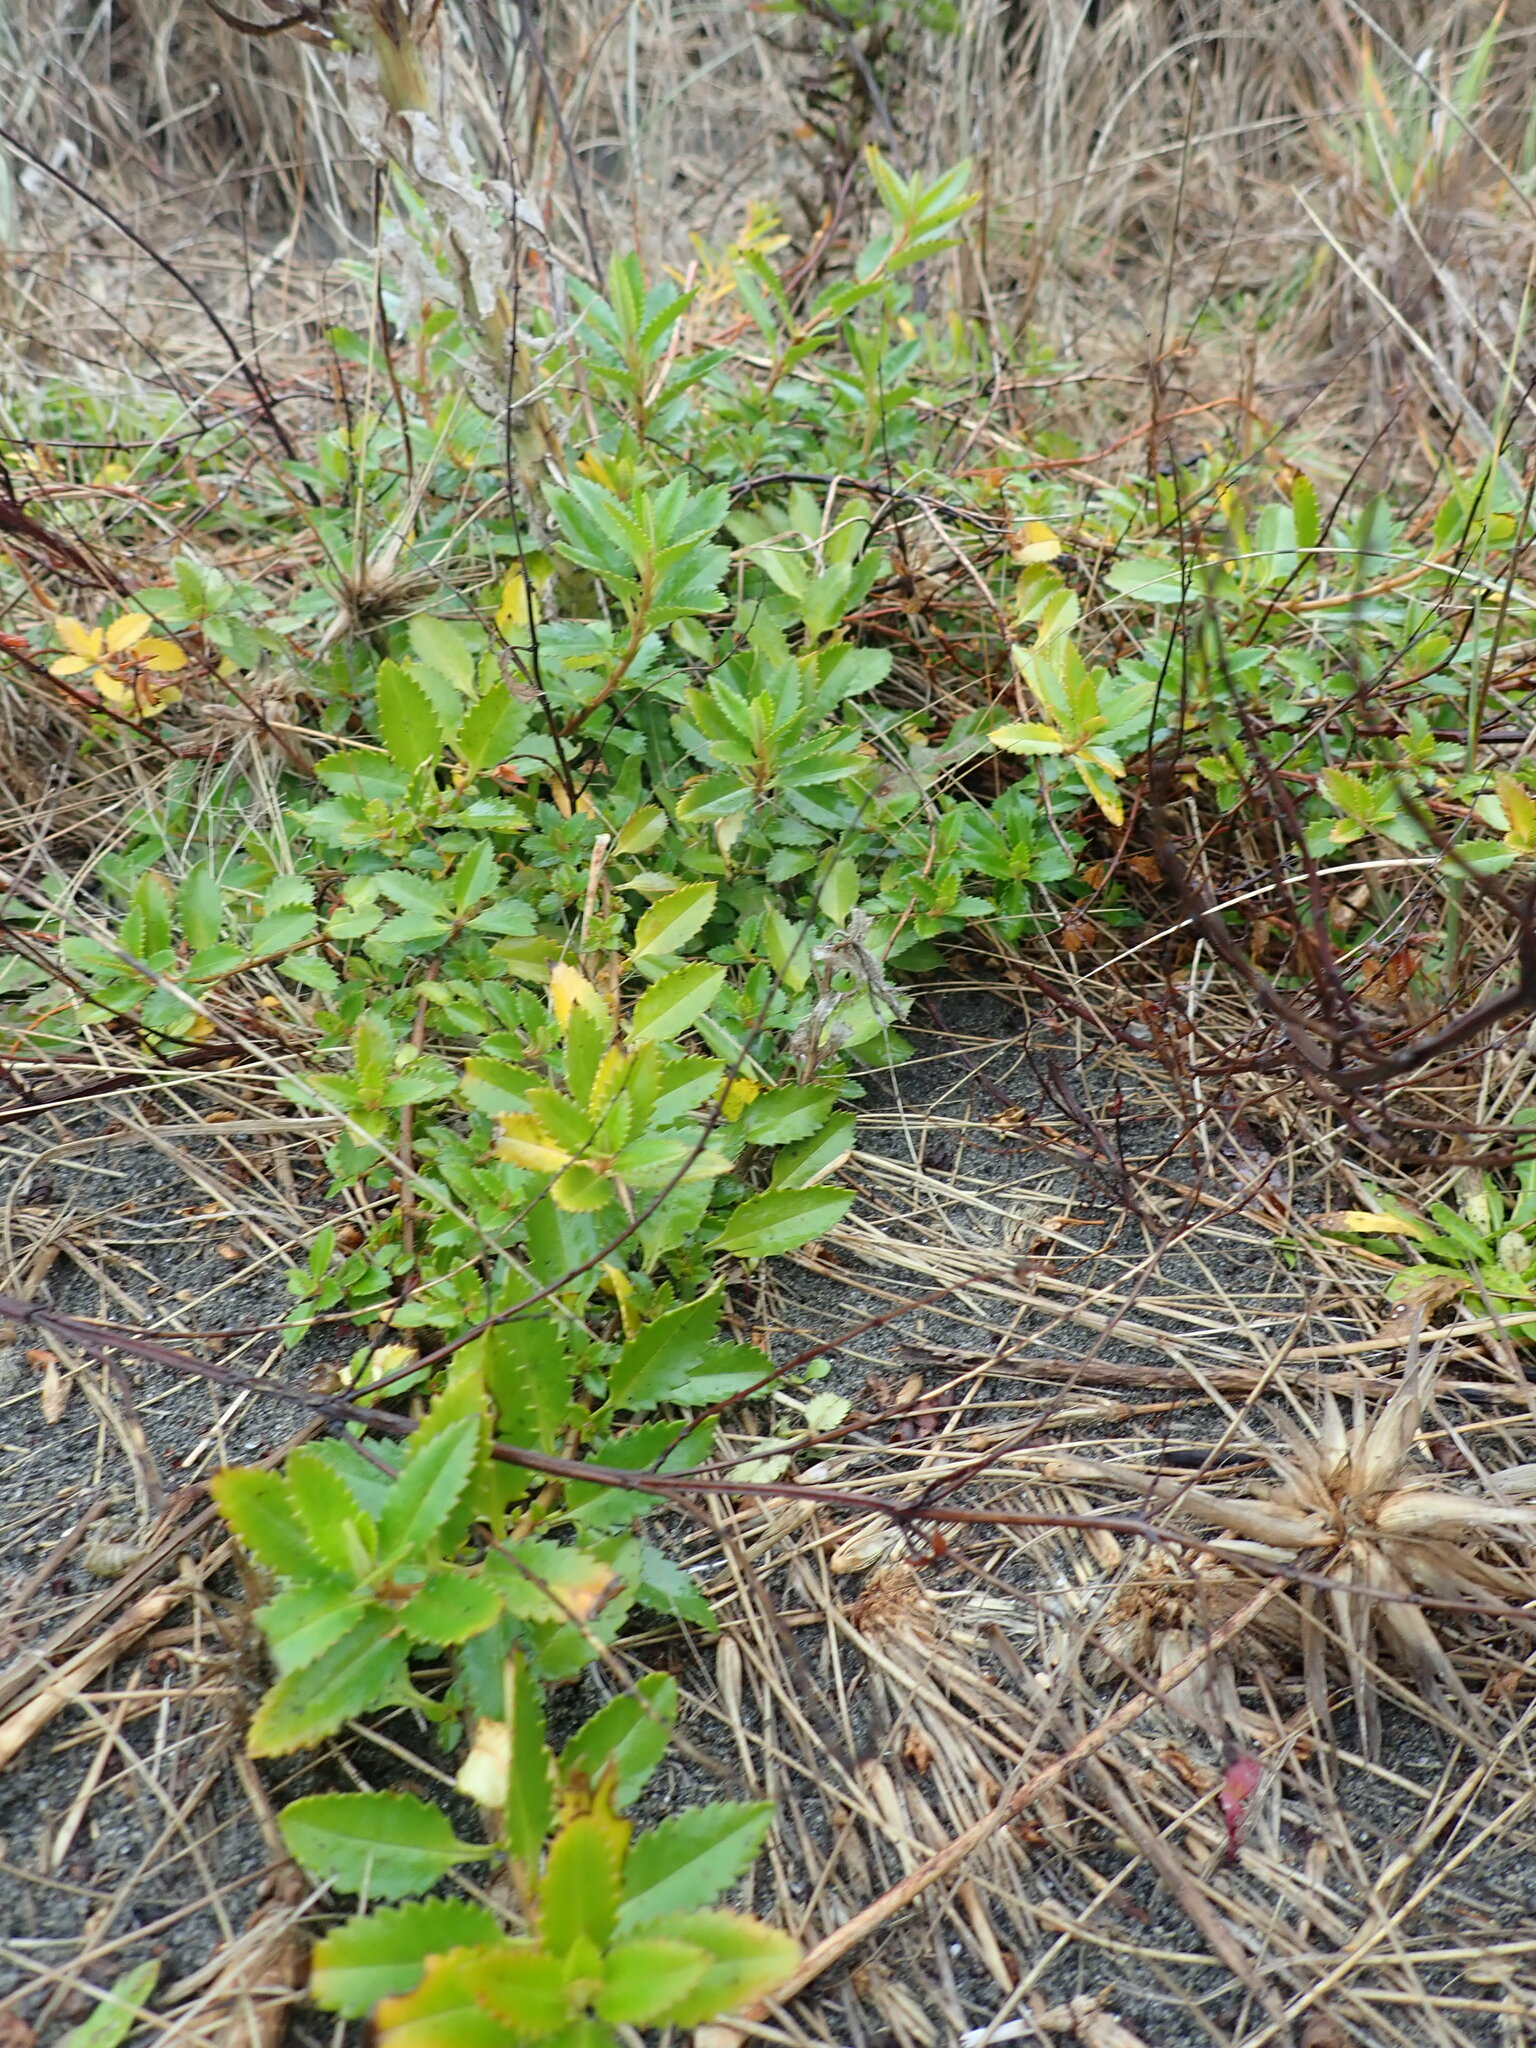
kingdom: Plantae
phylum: Tracheophyta
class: Magnoliopsida
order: Saxifragales
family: Haloragaceae
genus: Haloragis
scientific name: Haloragis erecta
